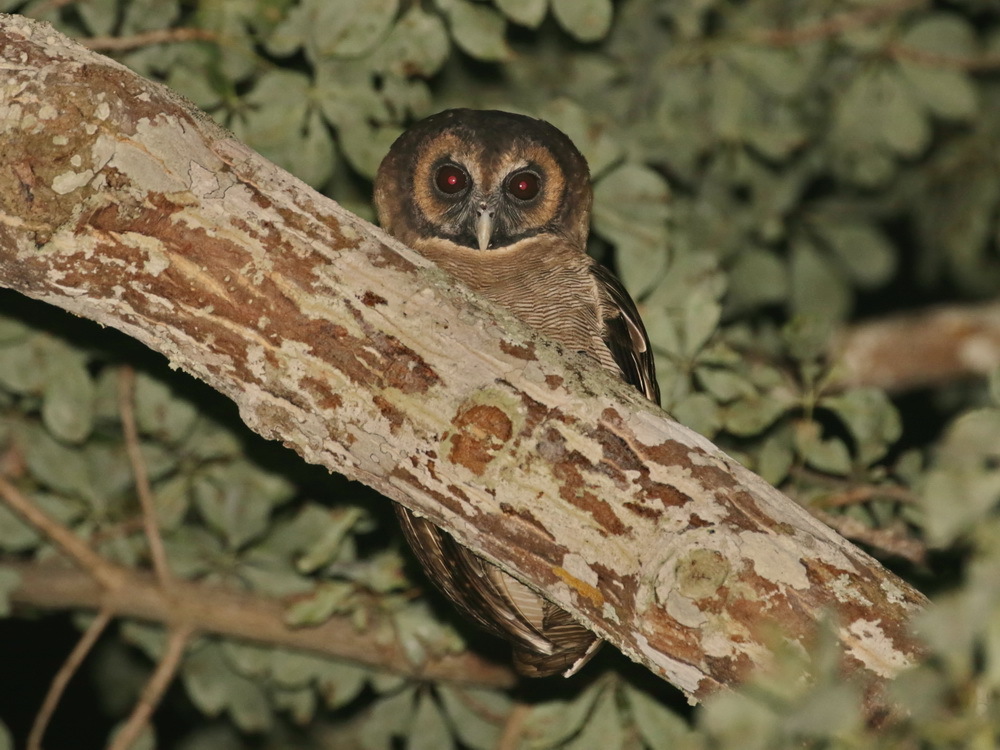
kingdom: Animalia
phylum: Chordata
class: Aves
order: Strigiformes
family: Strigidae
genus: Strix
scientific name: Strix leptogrammica
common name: Brown wood owl
